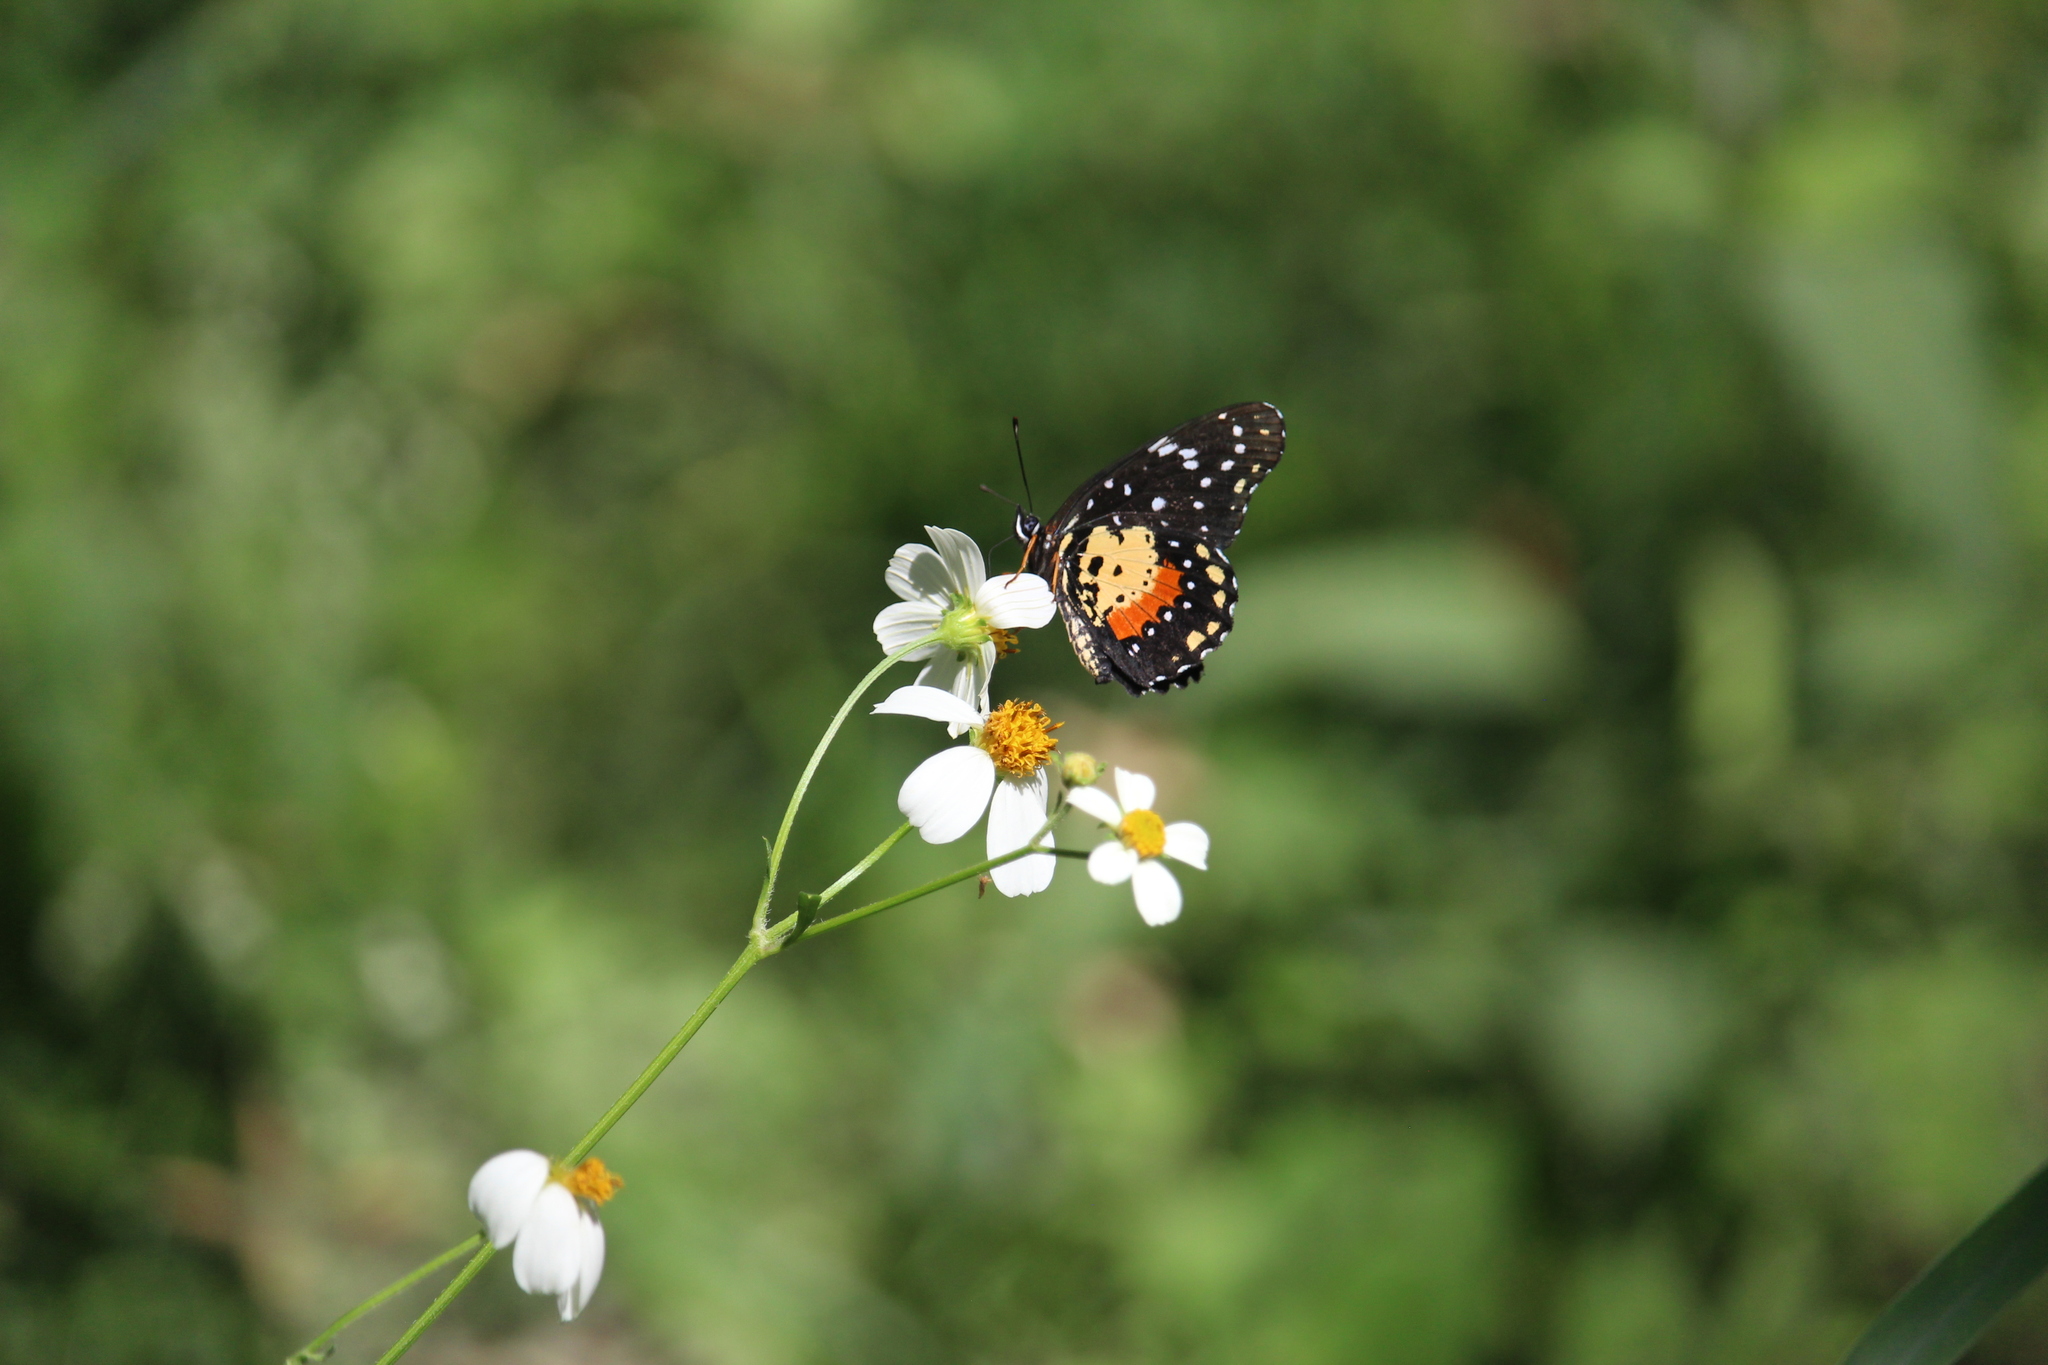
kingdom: Animalia
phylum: Arthropoda
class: Insecta
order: Lepidoptera
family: Nymphalidae
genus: Chlosyne
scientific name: Chlosyne janais
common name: Crimson patch
